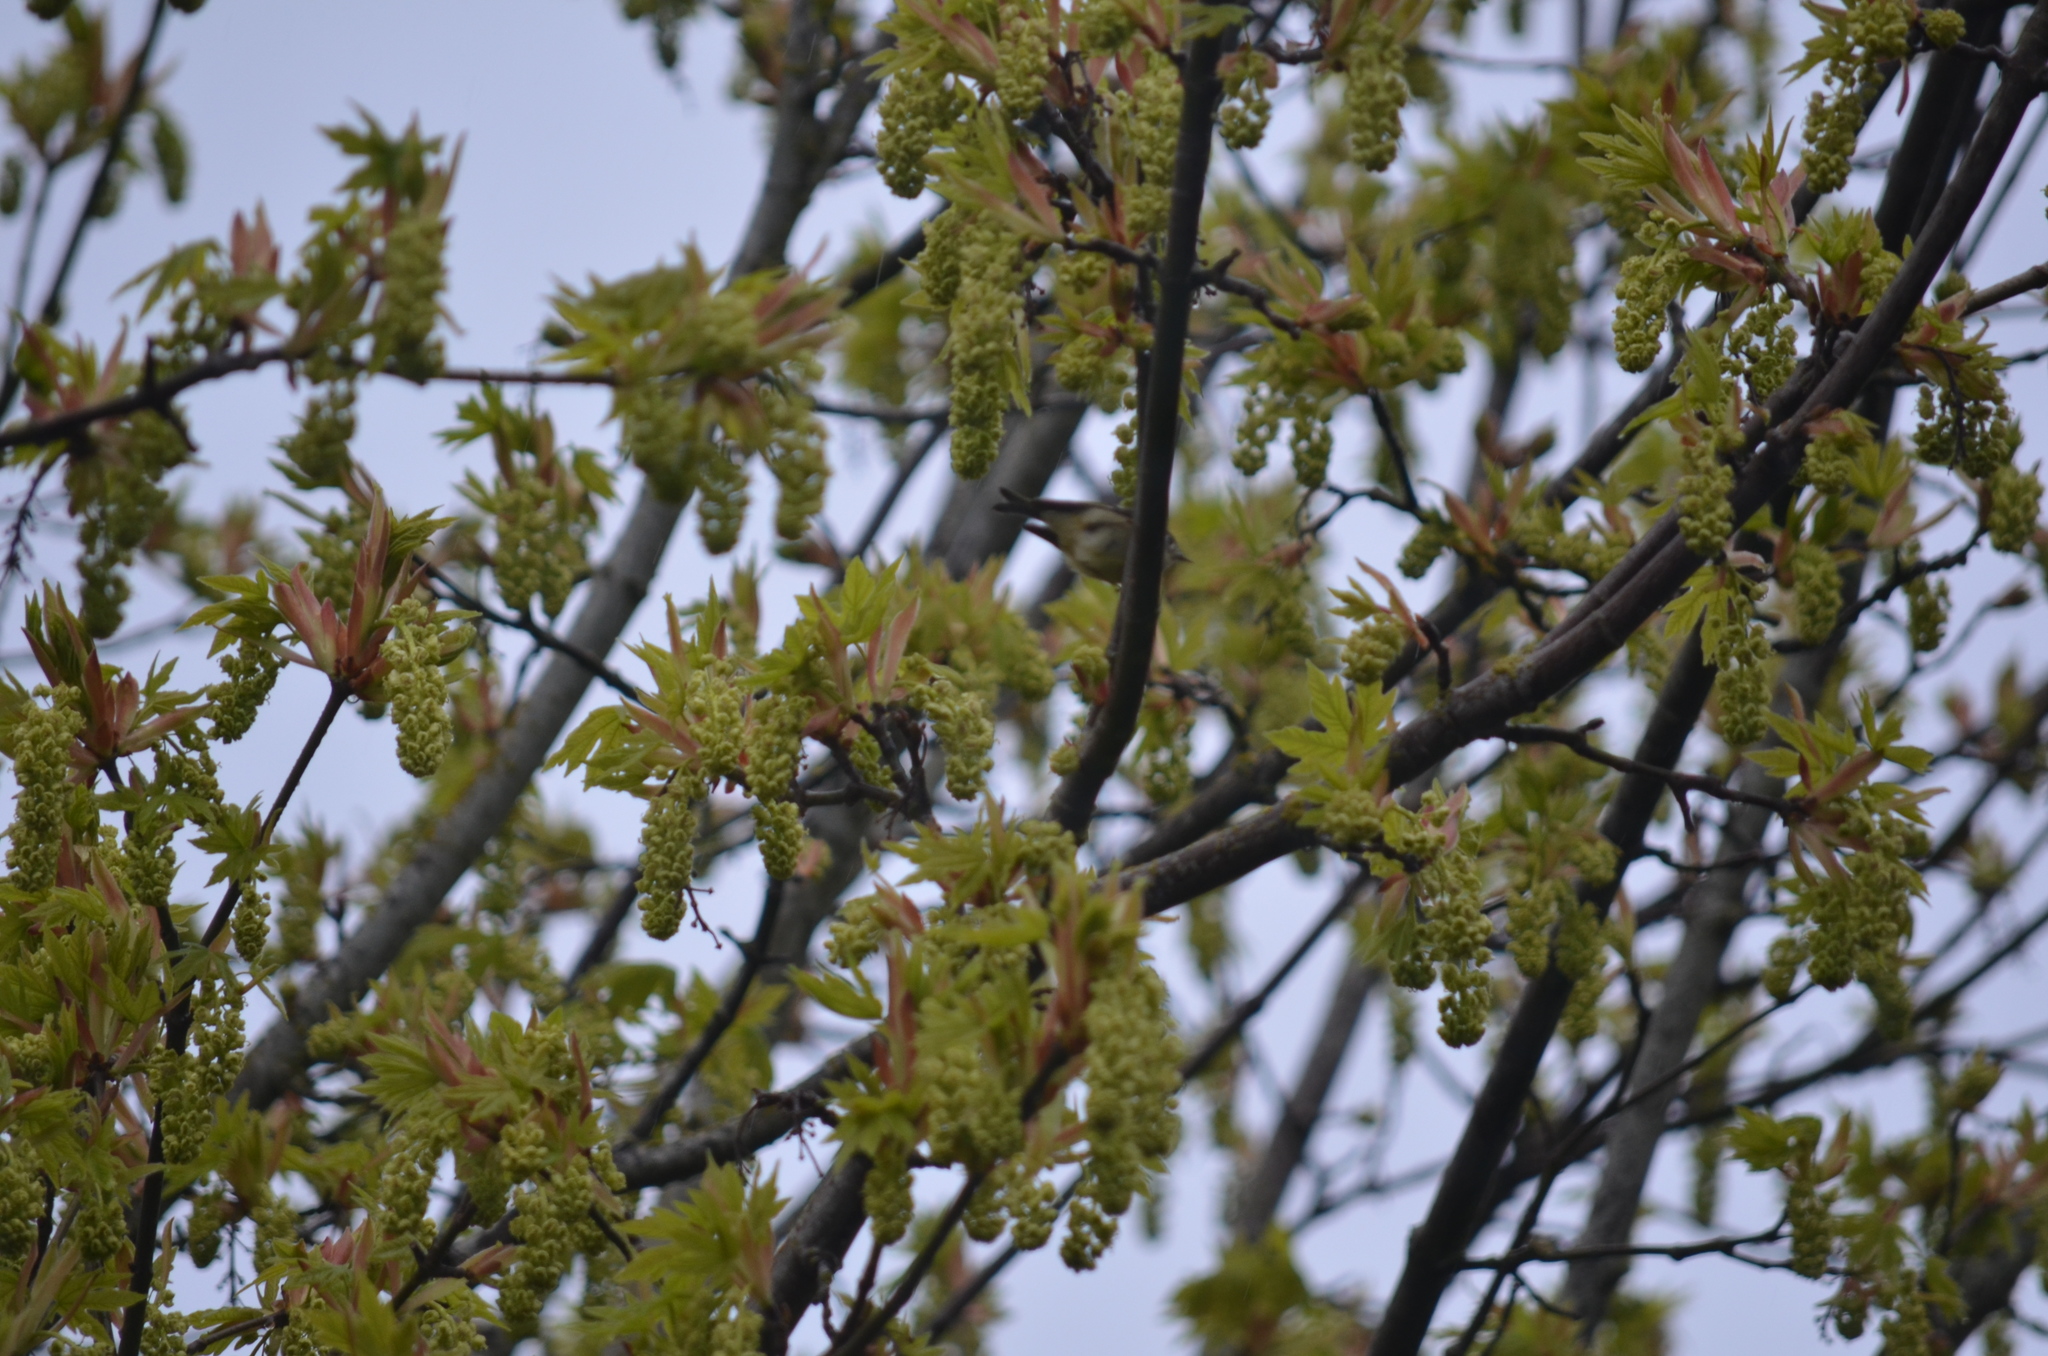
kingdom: Animalia
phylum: Chordata
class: Aves
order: Passeriformes
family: Regulidae
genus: Regulus
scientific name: Regulus calendula
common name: Ruby-crowned kinglet
